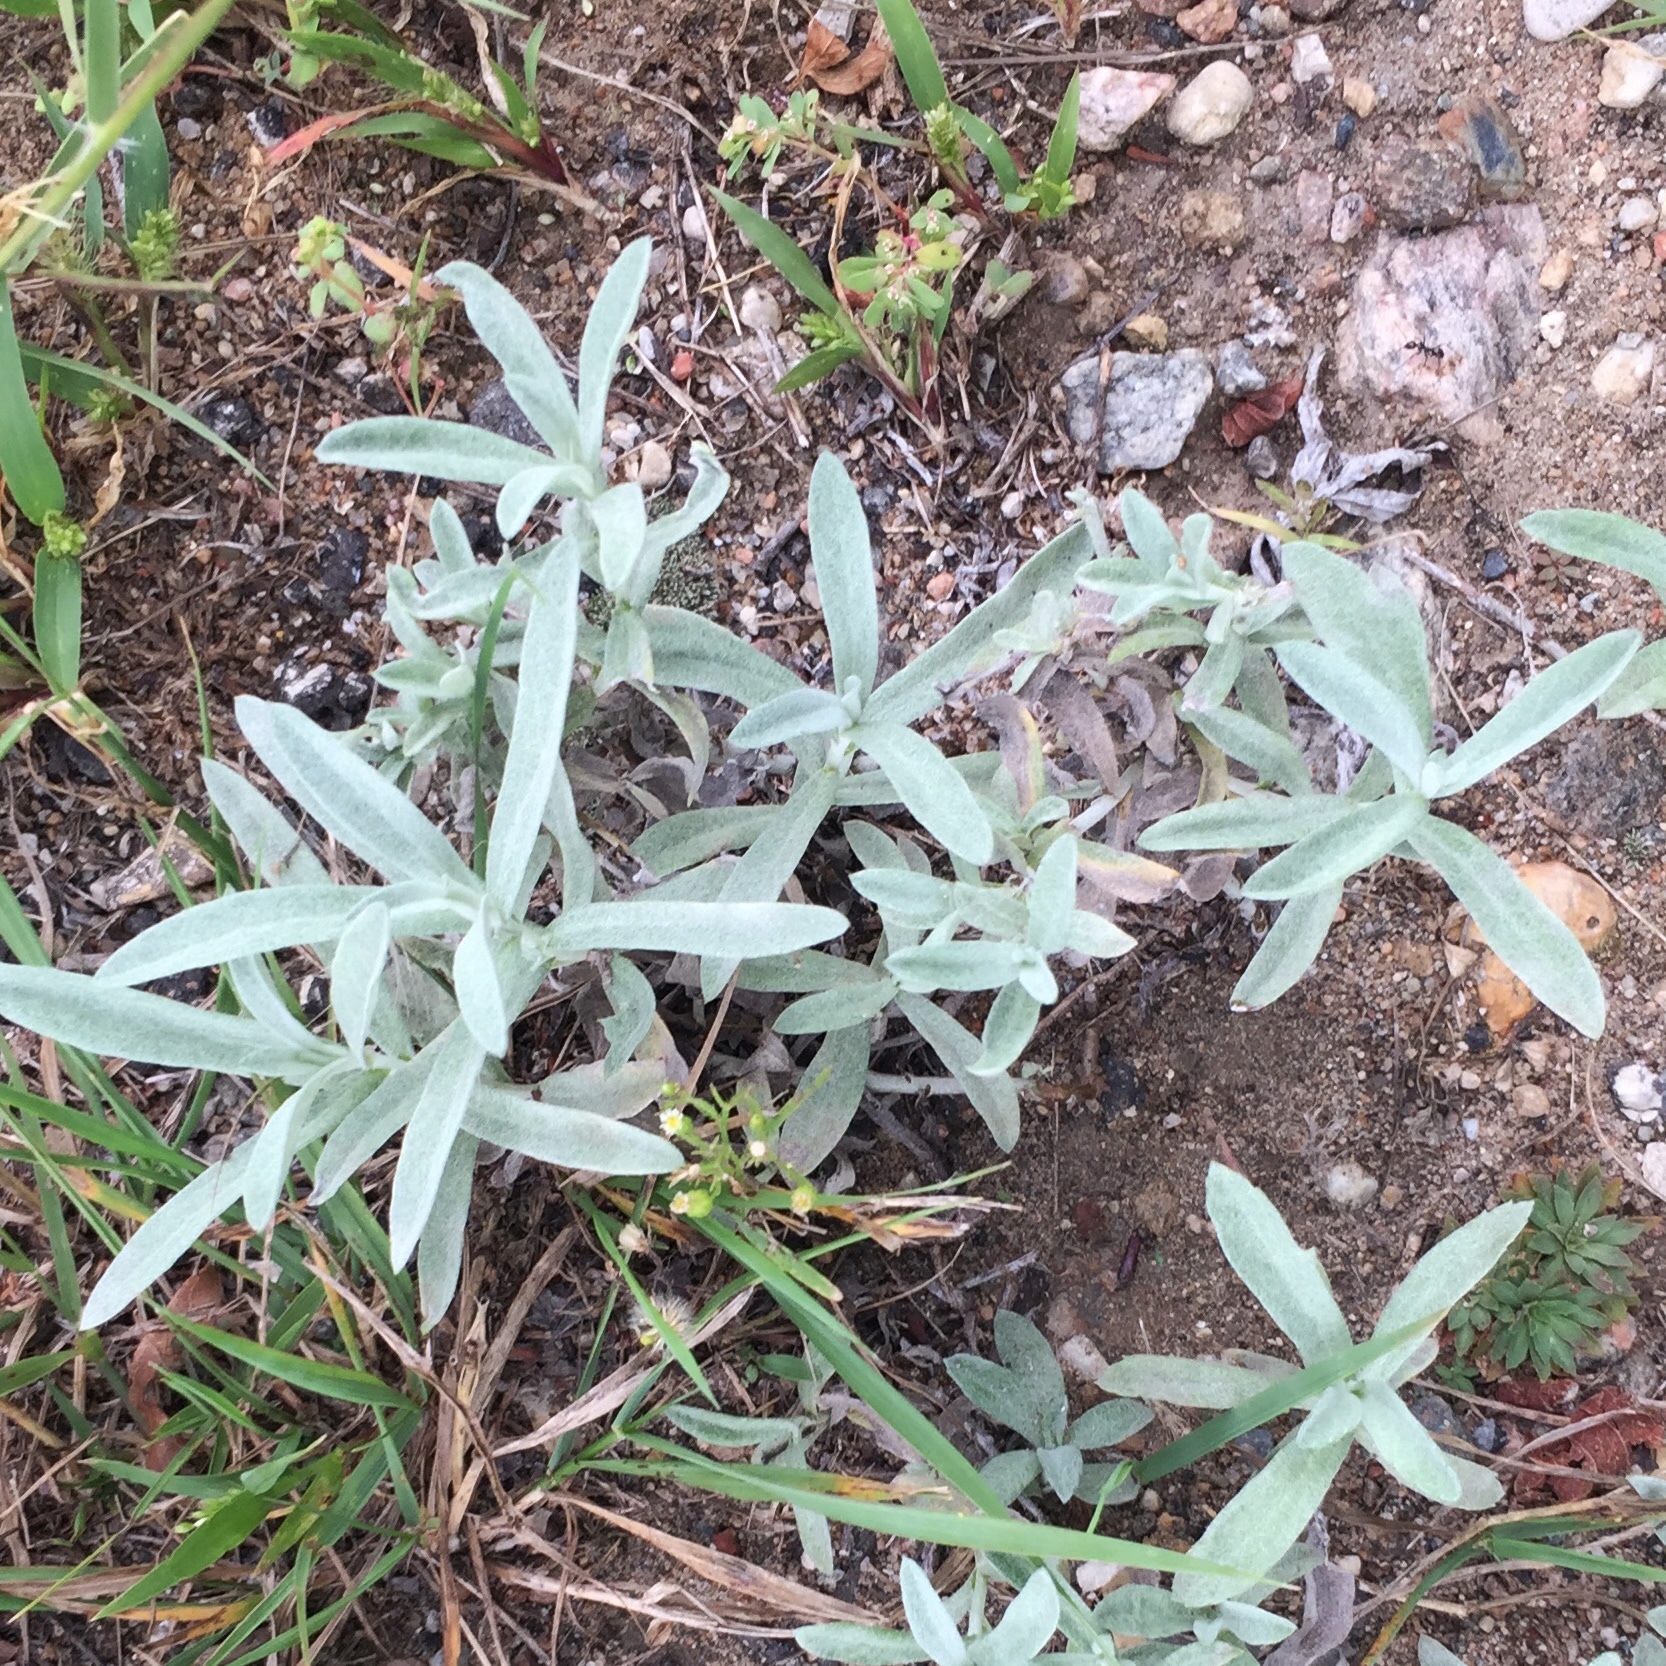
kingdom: Plantae
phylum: Tracheophyta
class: Magnoliopsida
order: Asterales
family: Asteraceae
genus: Artemisia
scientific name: Artemisia ludoviciana
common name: Western mugwort
